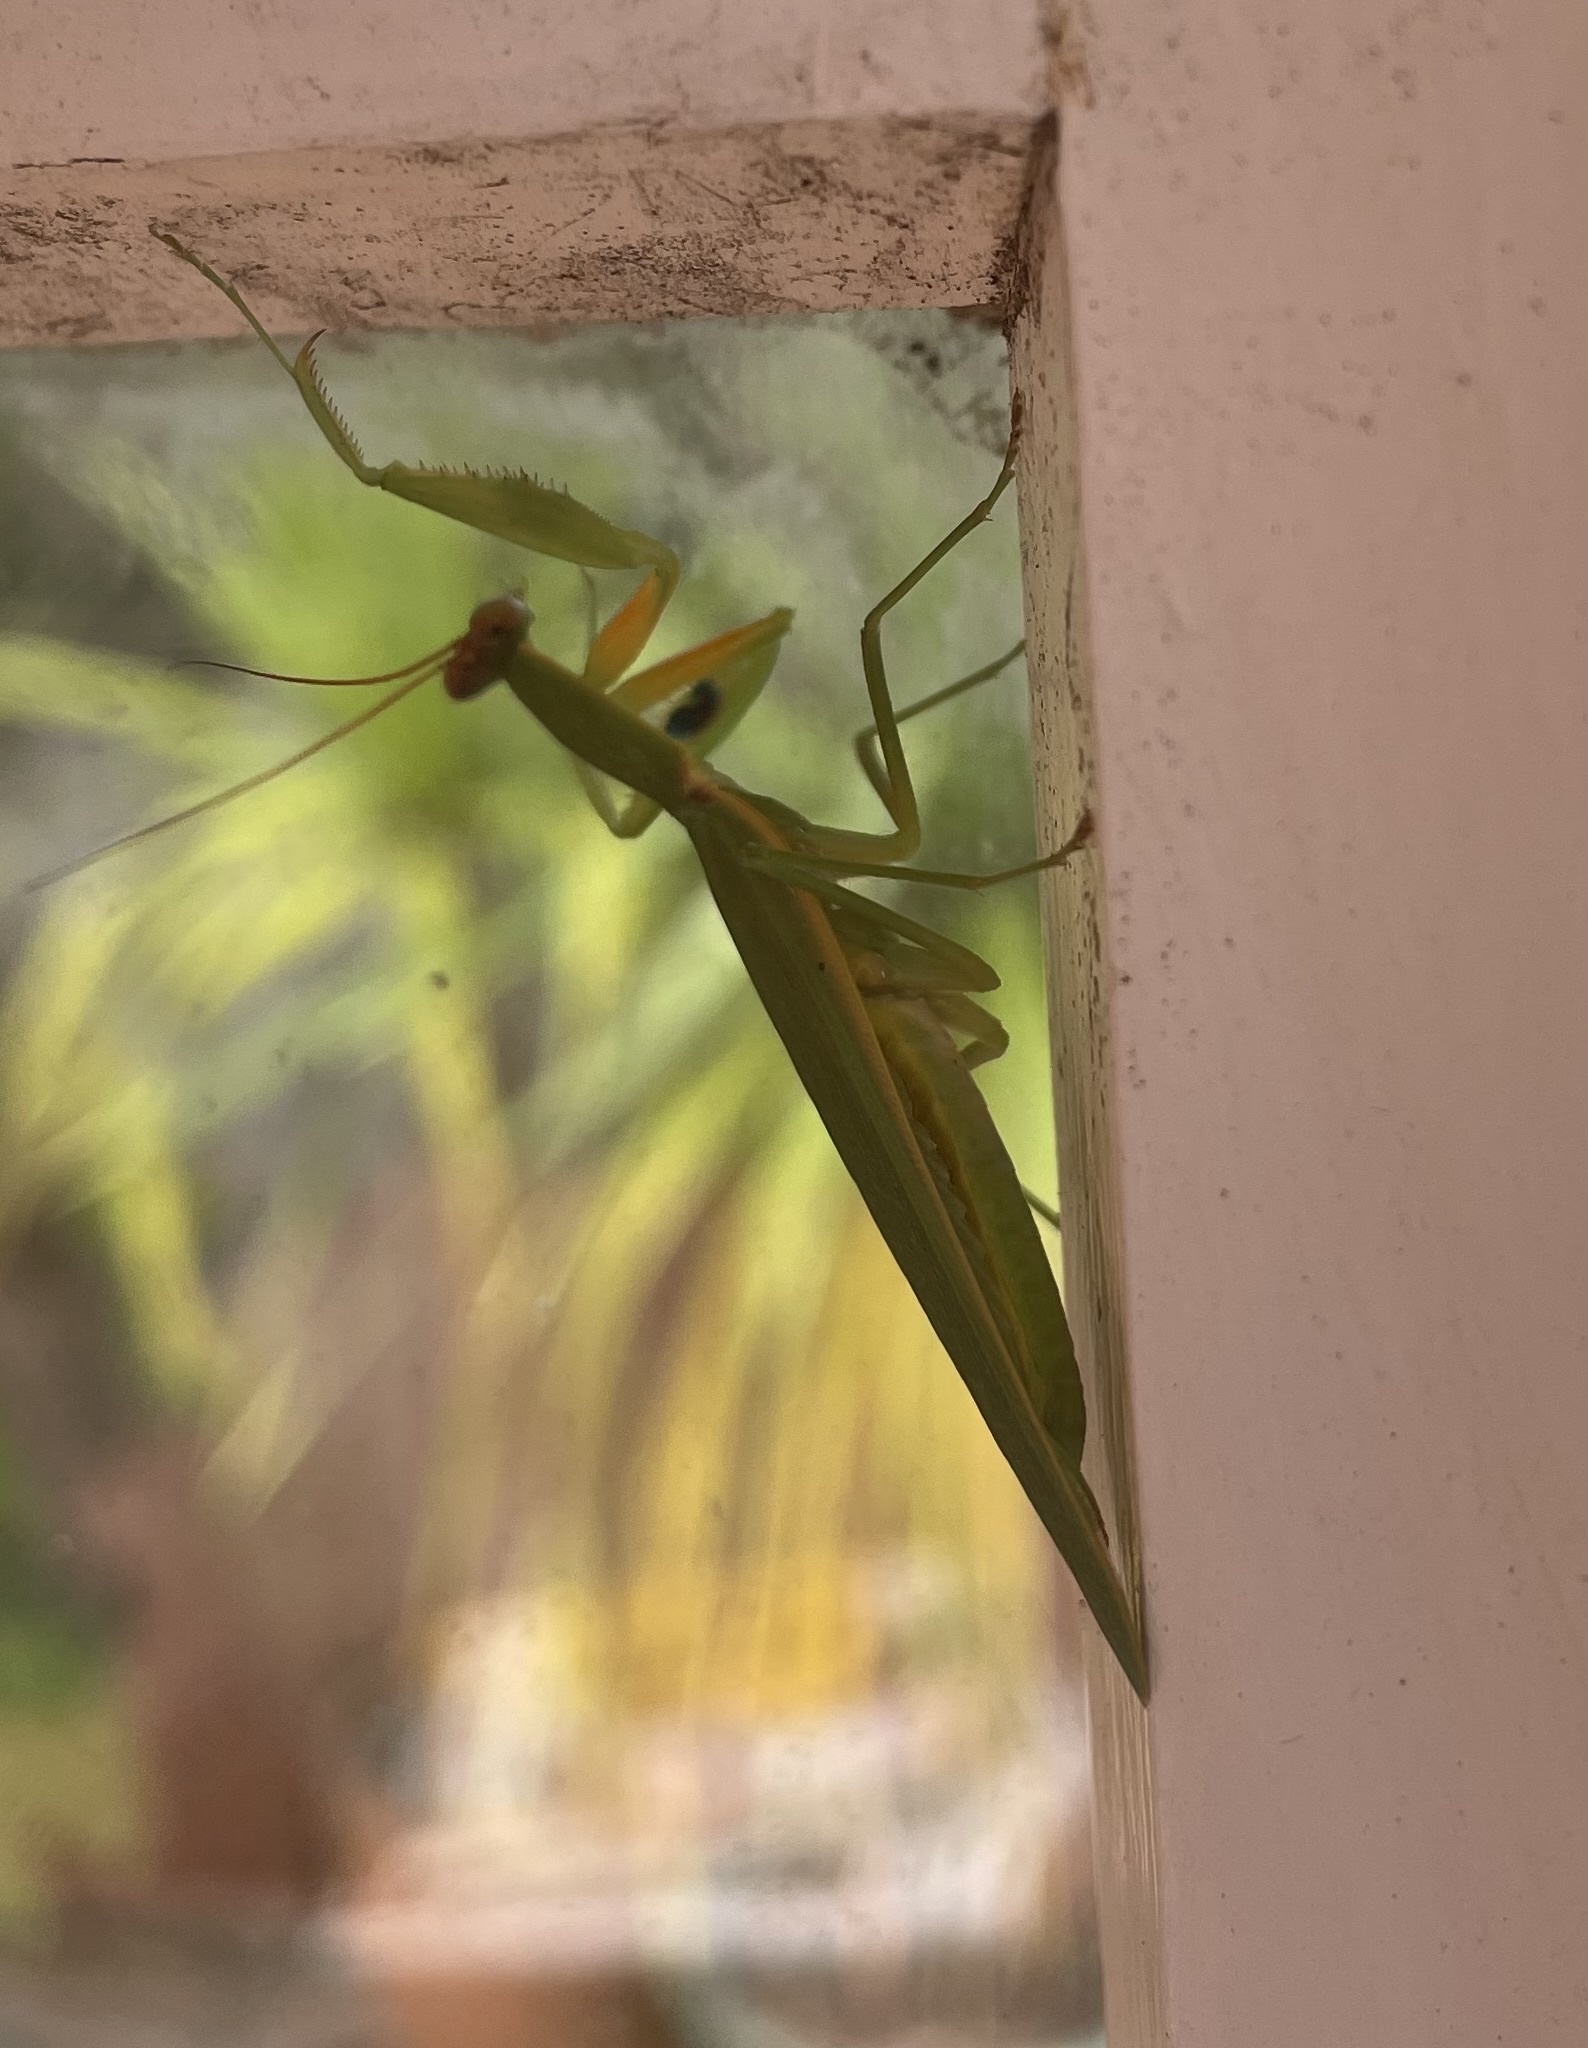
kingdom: Animalia
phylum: Arthropoda
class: Insecta
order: Mantodea
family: Mantidae
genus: Orthodera
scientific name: Orthodera novaezealandiae
